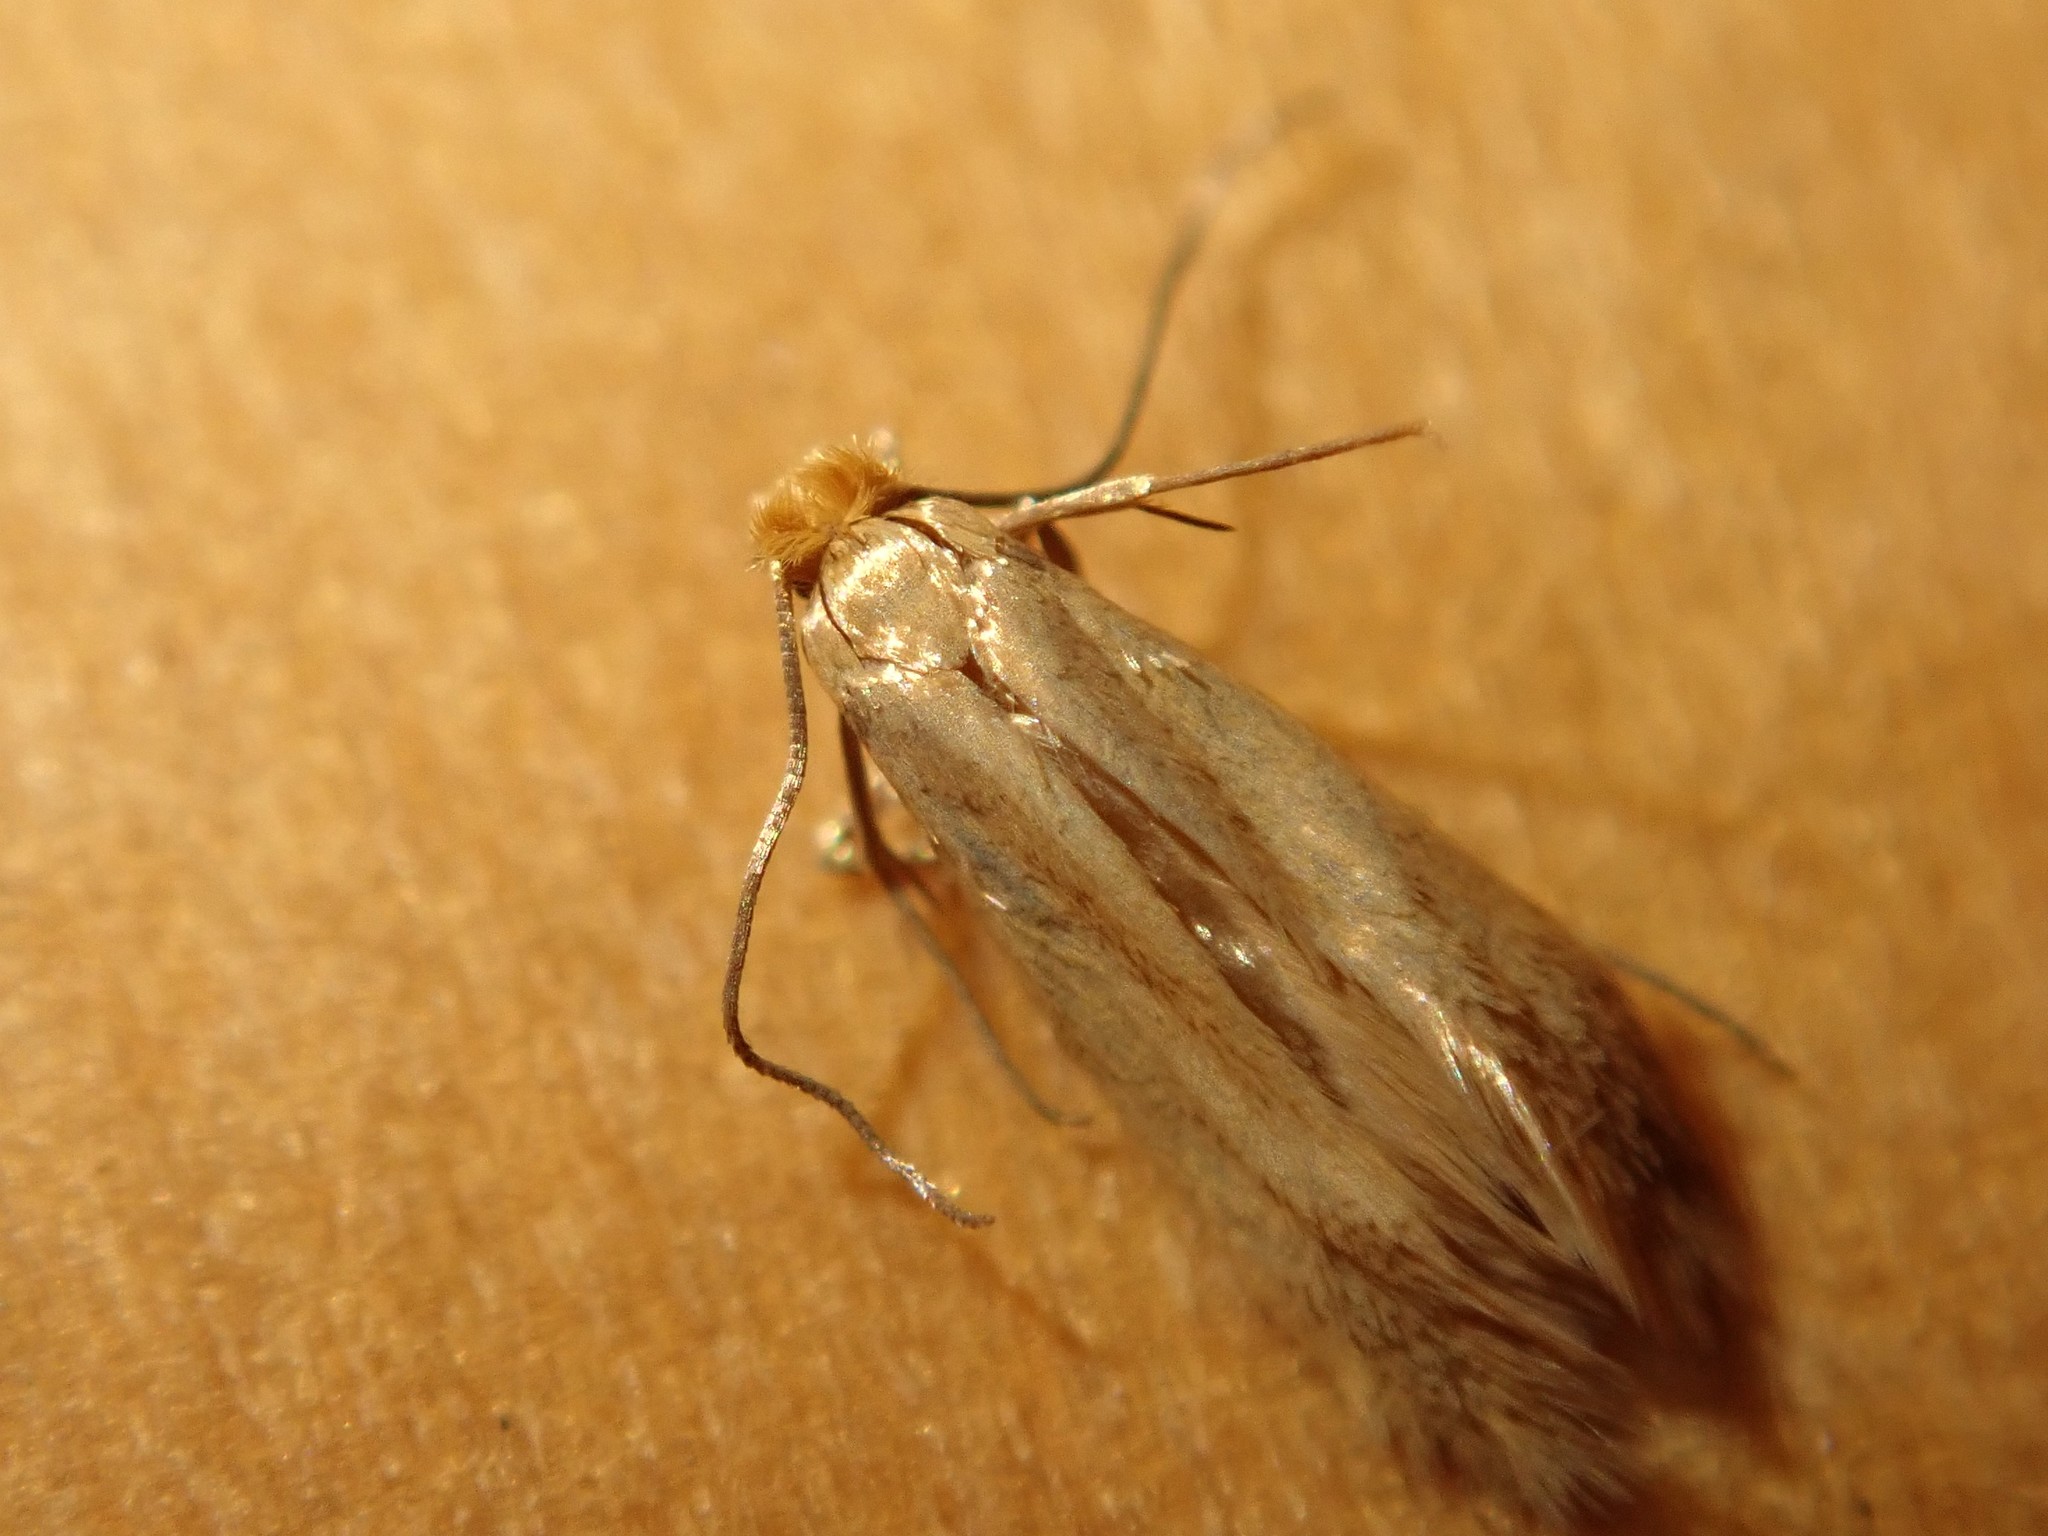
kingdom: Animalia
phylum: Arthropoda
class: Insecta
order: Lepidoptera
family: Tineidae
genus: Tineola
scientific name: Tineola bisselliella
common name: Webbing clothes moth
